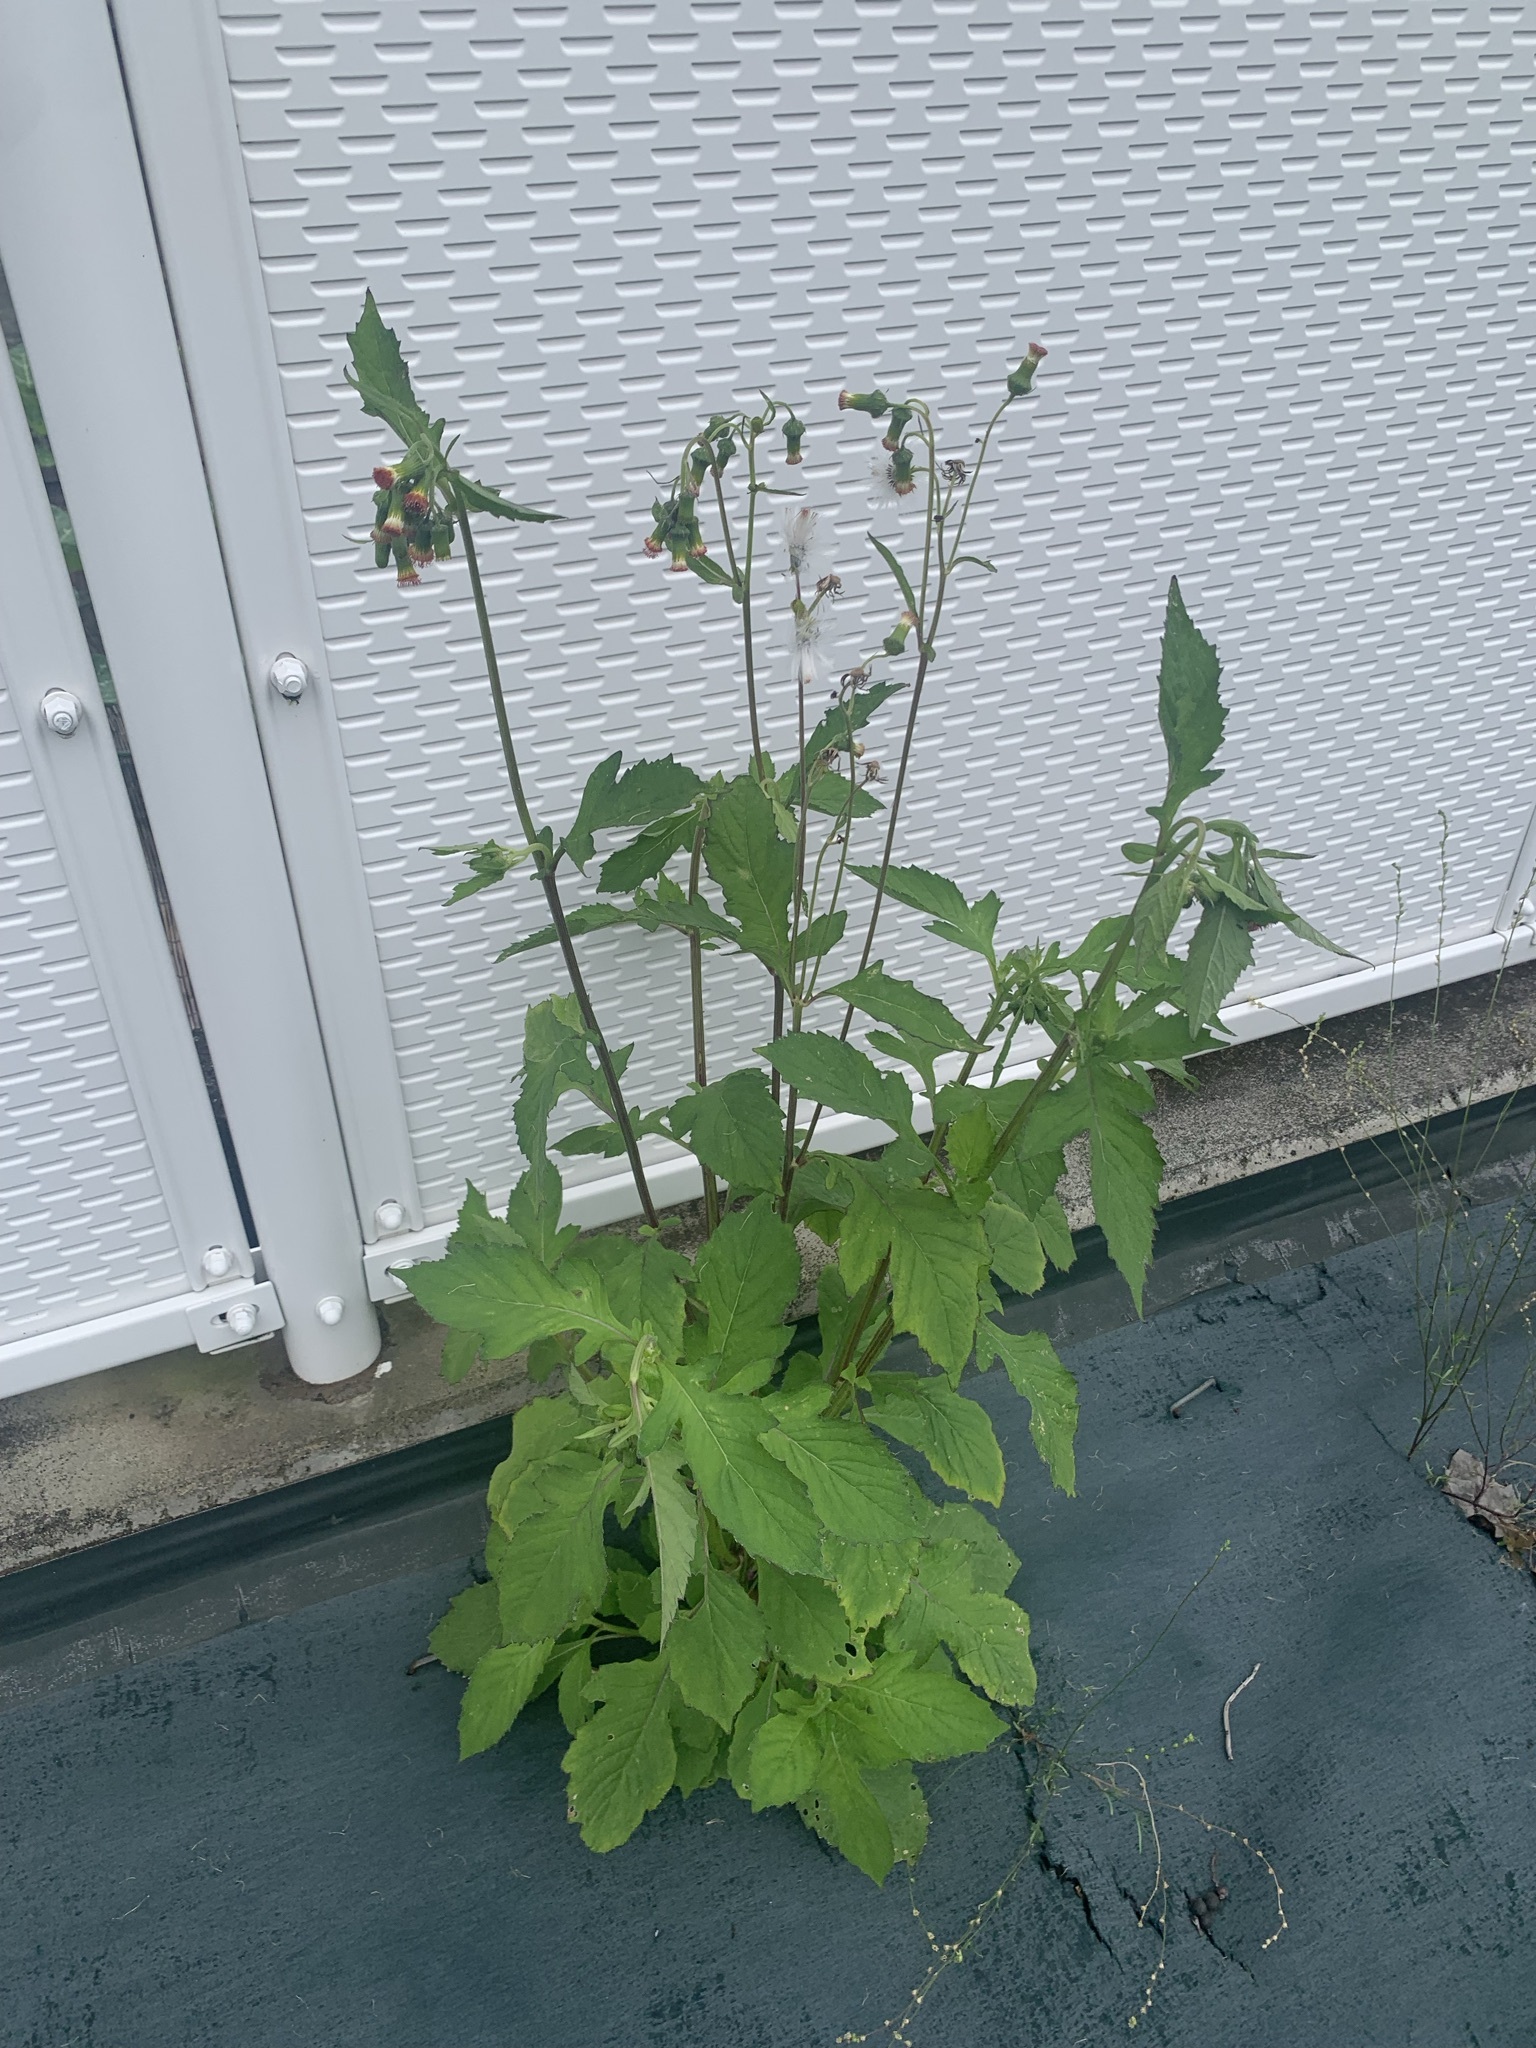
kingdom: Plantae
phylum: Tracheophyta
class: Magnoliopsida
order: Asterales
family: Asteraceae
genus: Crassocephalum
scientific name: Crassocephalum crepidioides
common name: Redflower ragleaf
